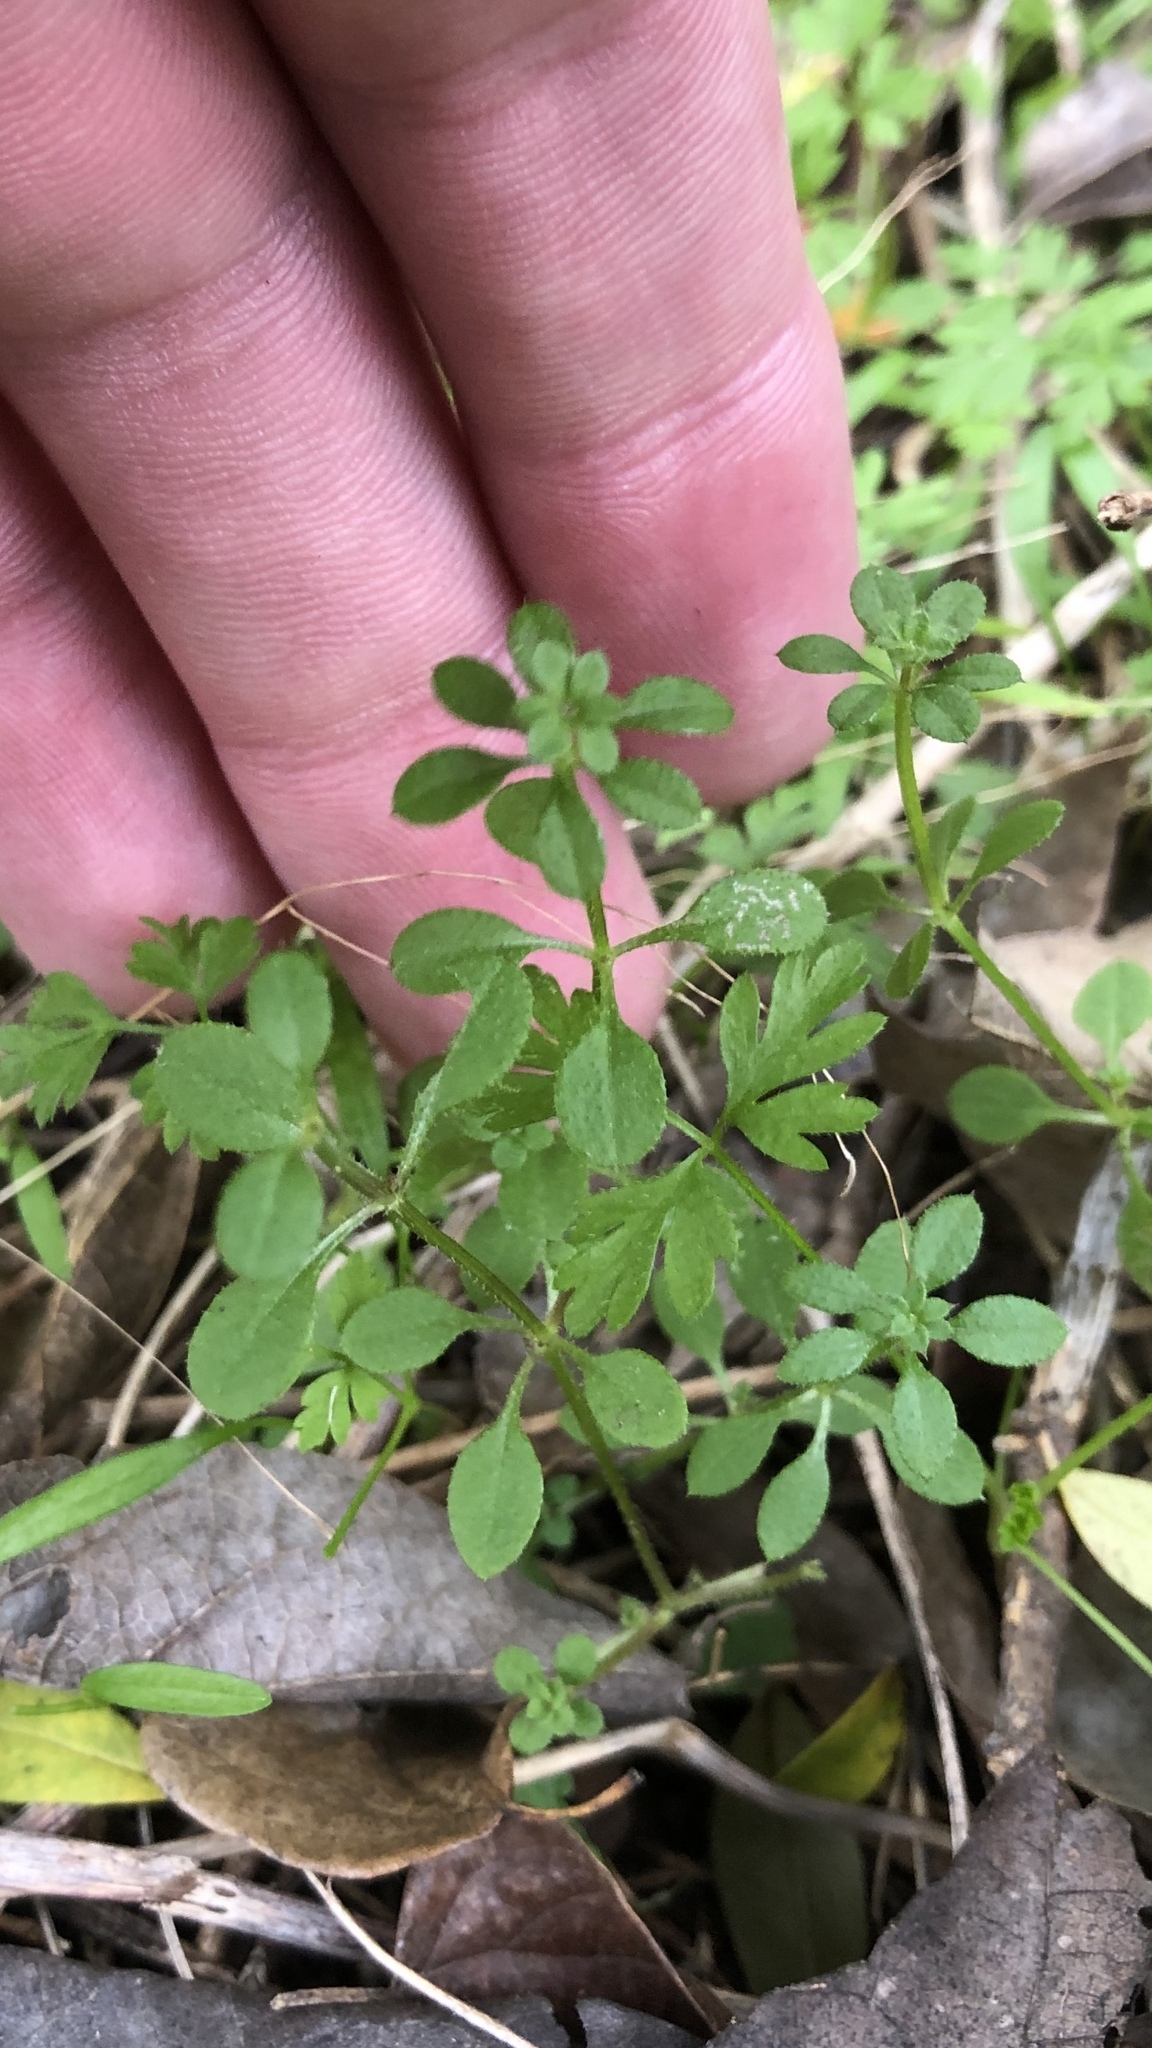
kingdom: Plantae
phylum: Tracheophyta
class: Magnoliopsida
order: Gentianales
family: Rubiaceae
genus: Galium
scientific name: Galium aparine
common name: Cleavers
